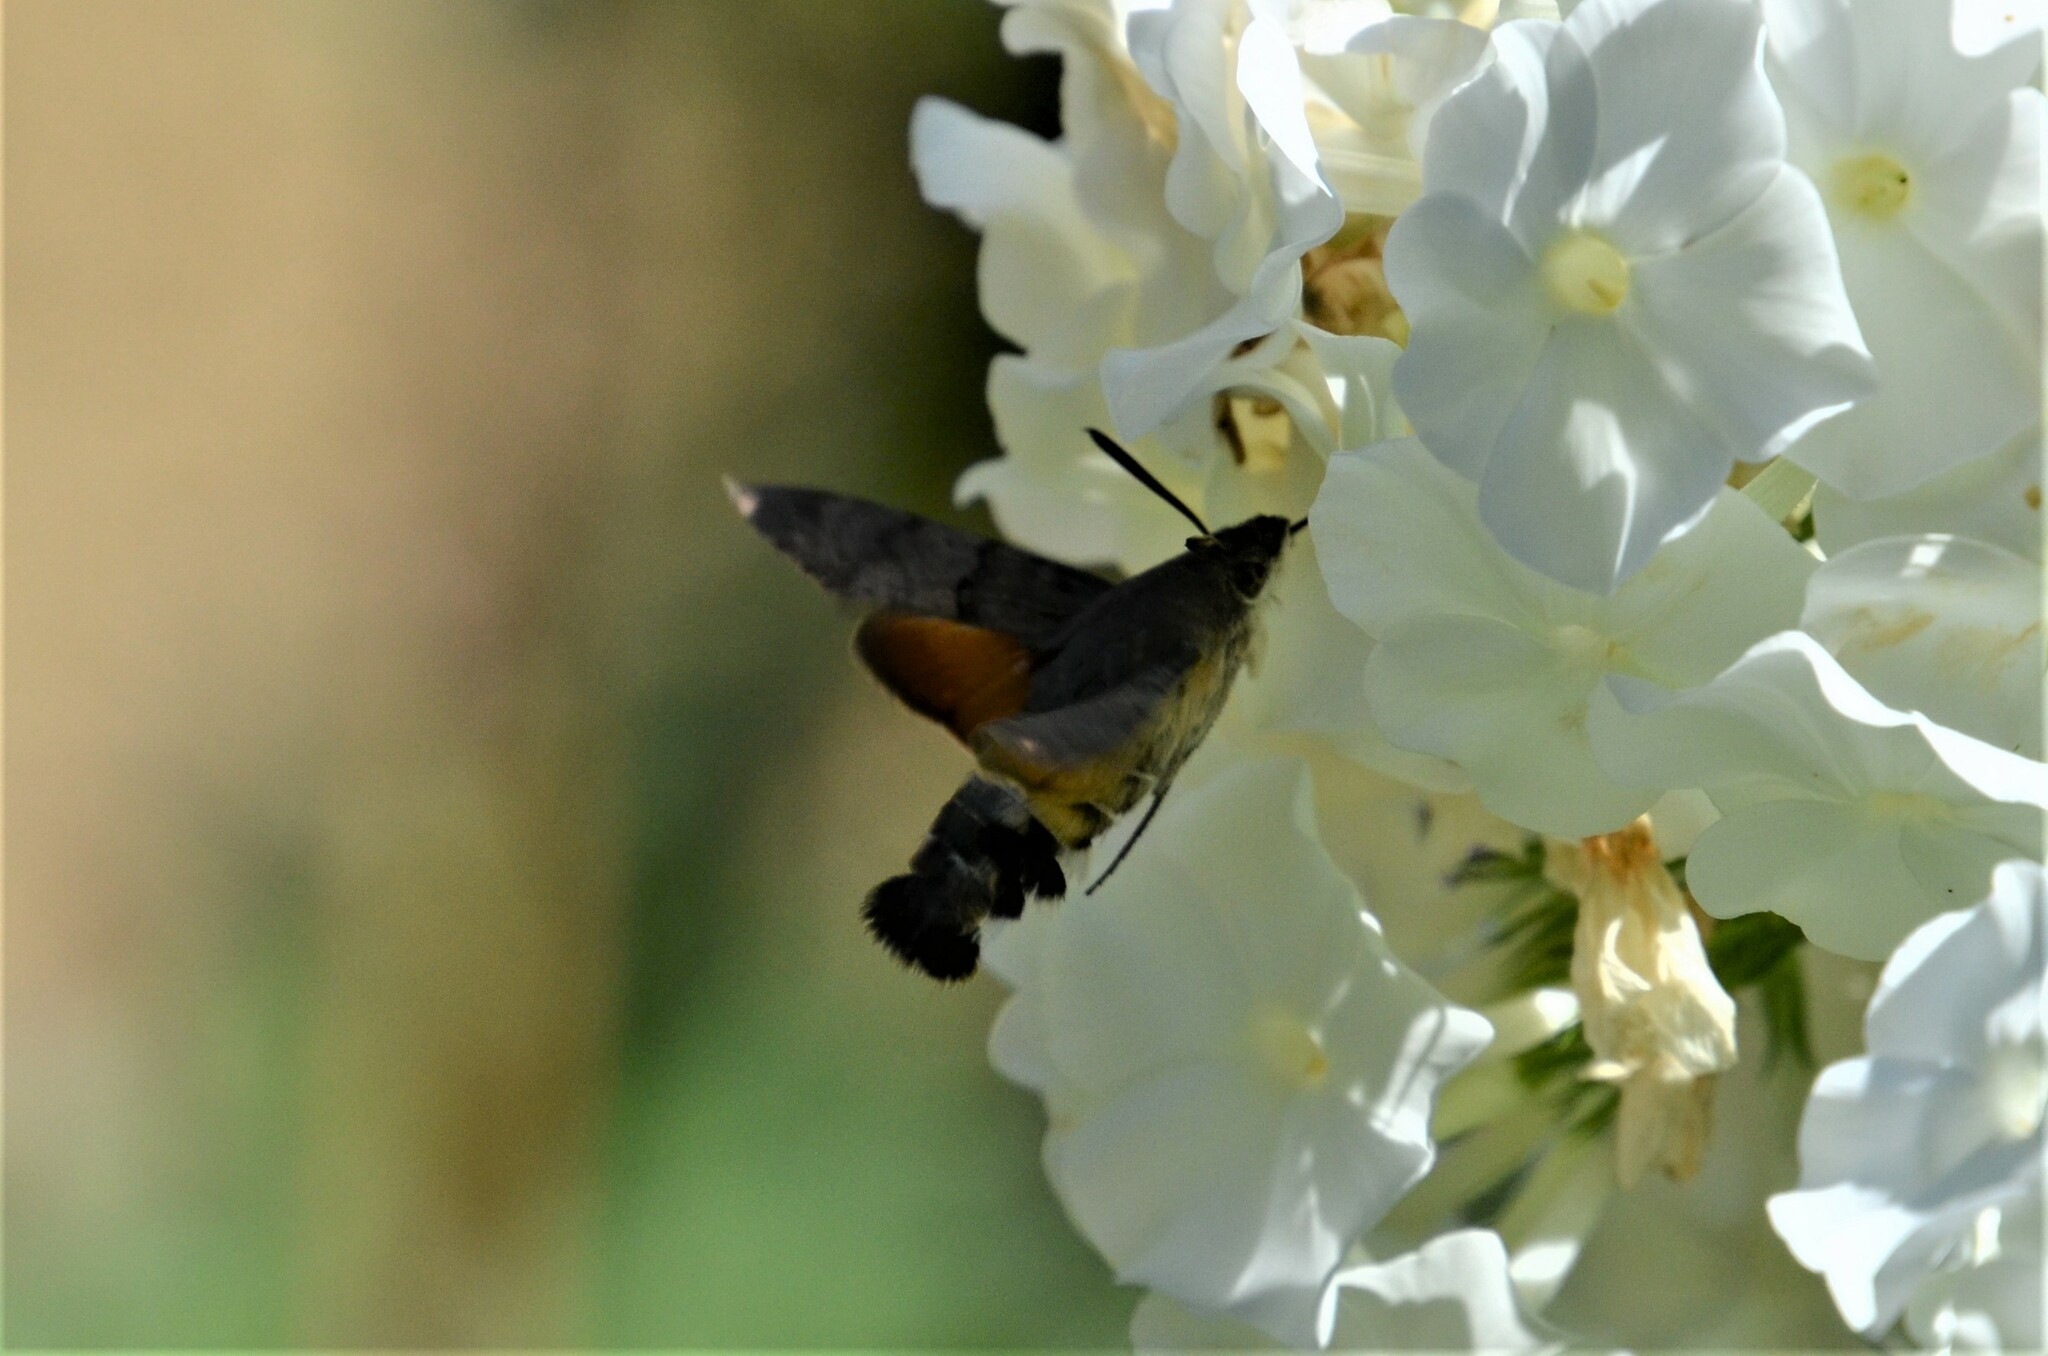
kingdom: Animalia
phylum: Arthropoda
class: Insecta
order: Lepidoptera
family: Sphingidae
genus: Macroglossum
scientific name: Macroglossum stellatarum
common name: Humming-bird hawk-moth
